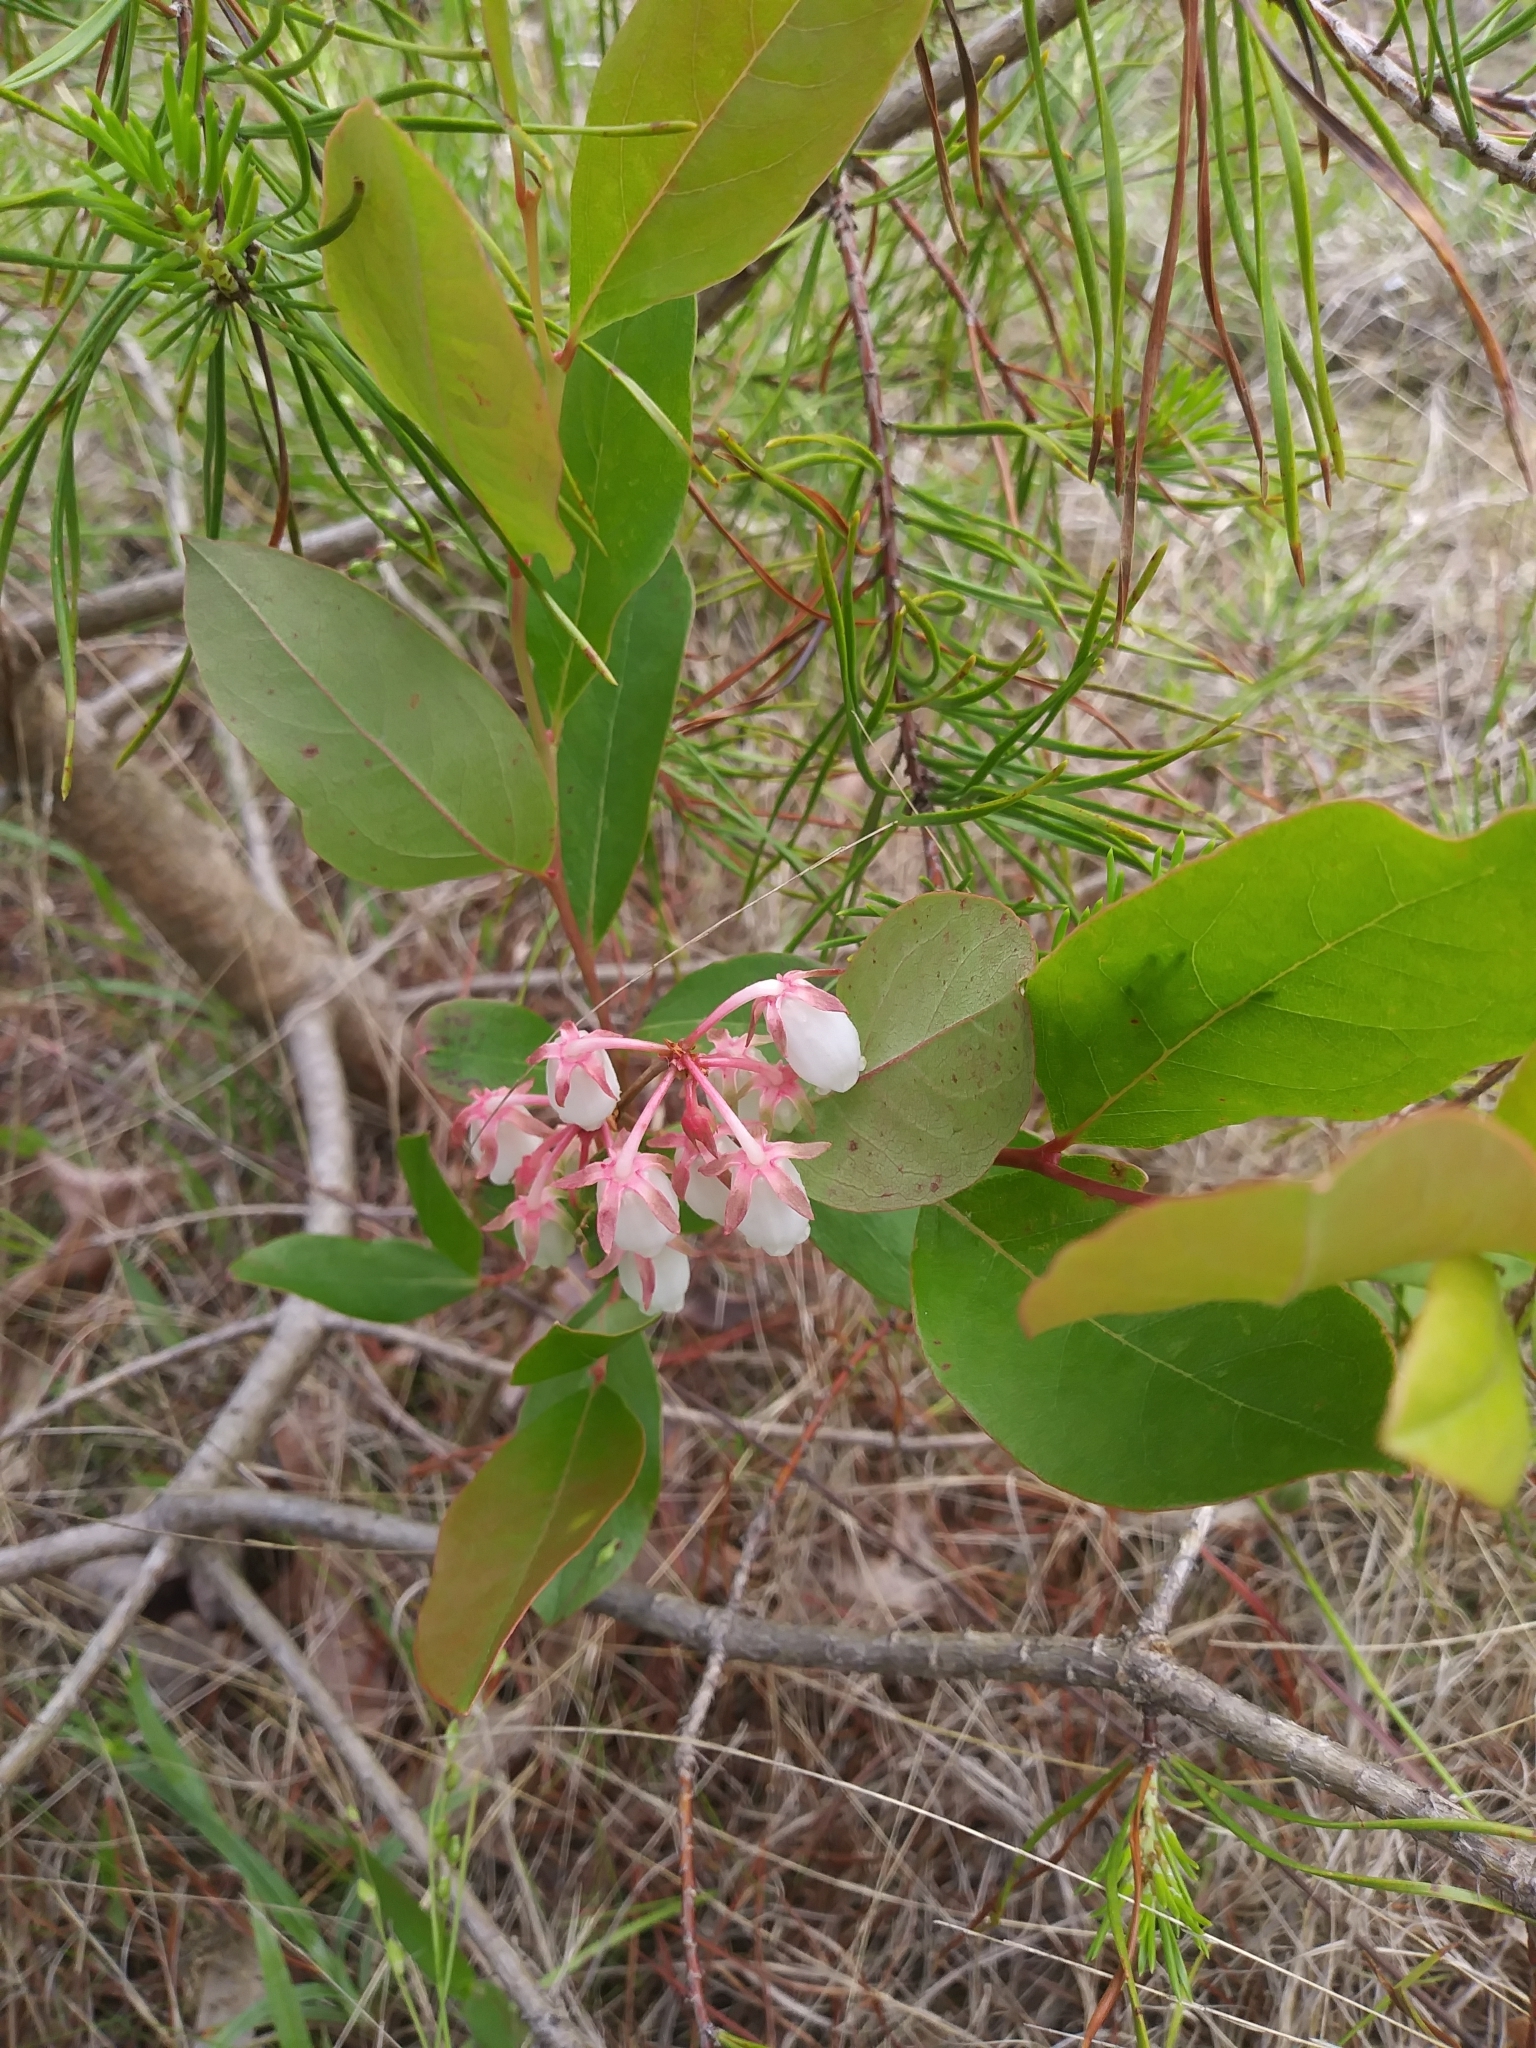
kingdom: Plantae
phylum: Tracheophyta
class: Magnoliopsida
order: Ericales
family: Ericaceae
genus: Lyonia
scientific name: Lyonia mariana
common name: Staggerbush
